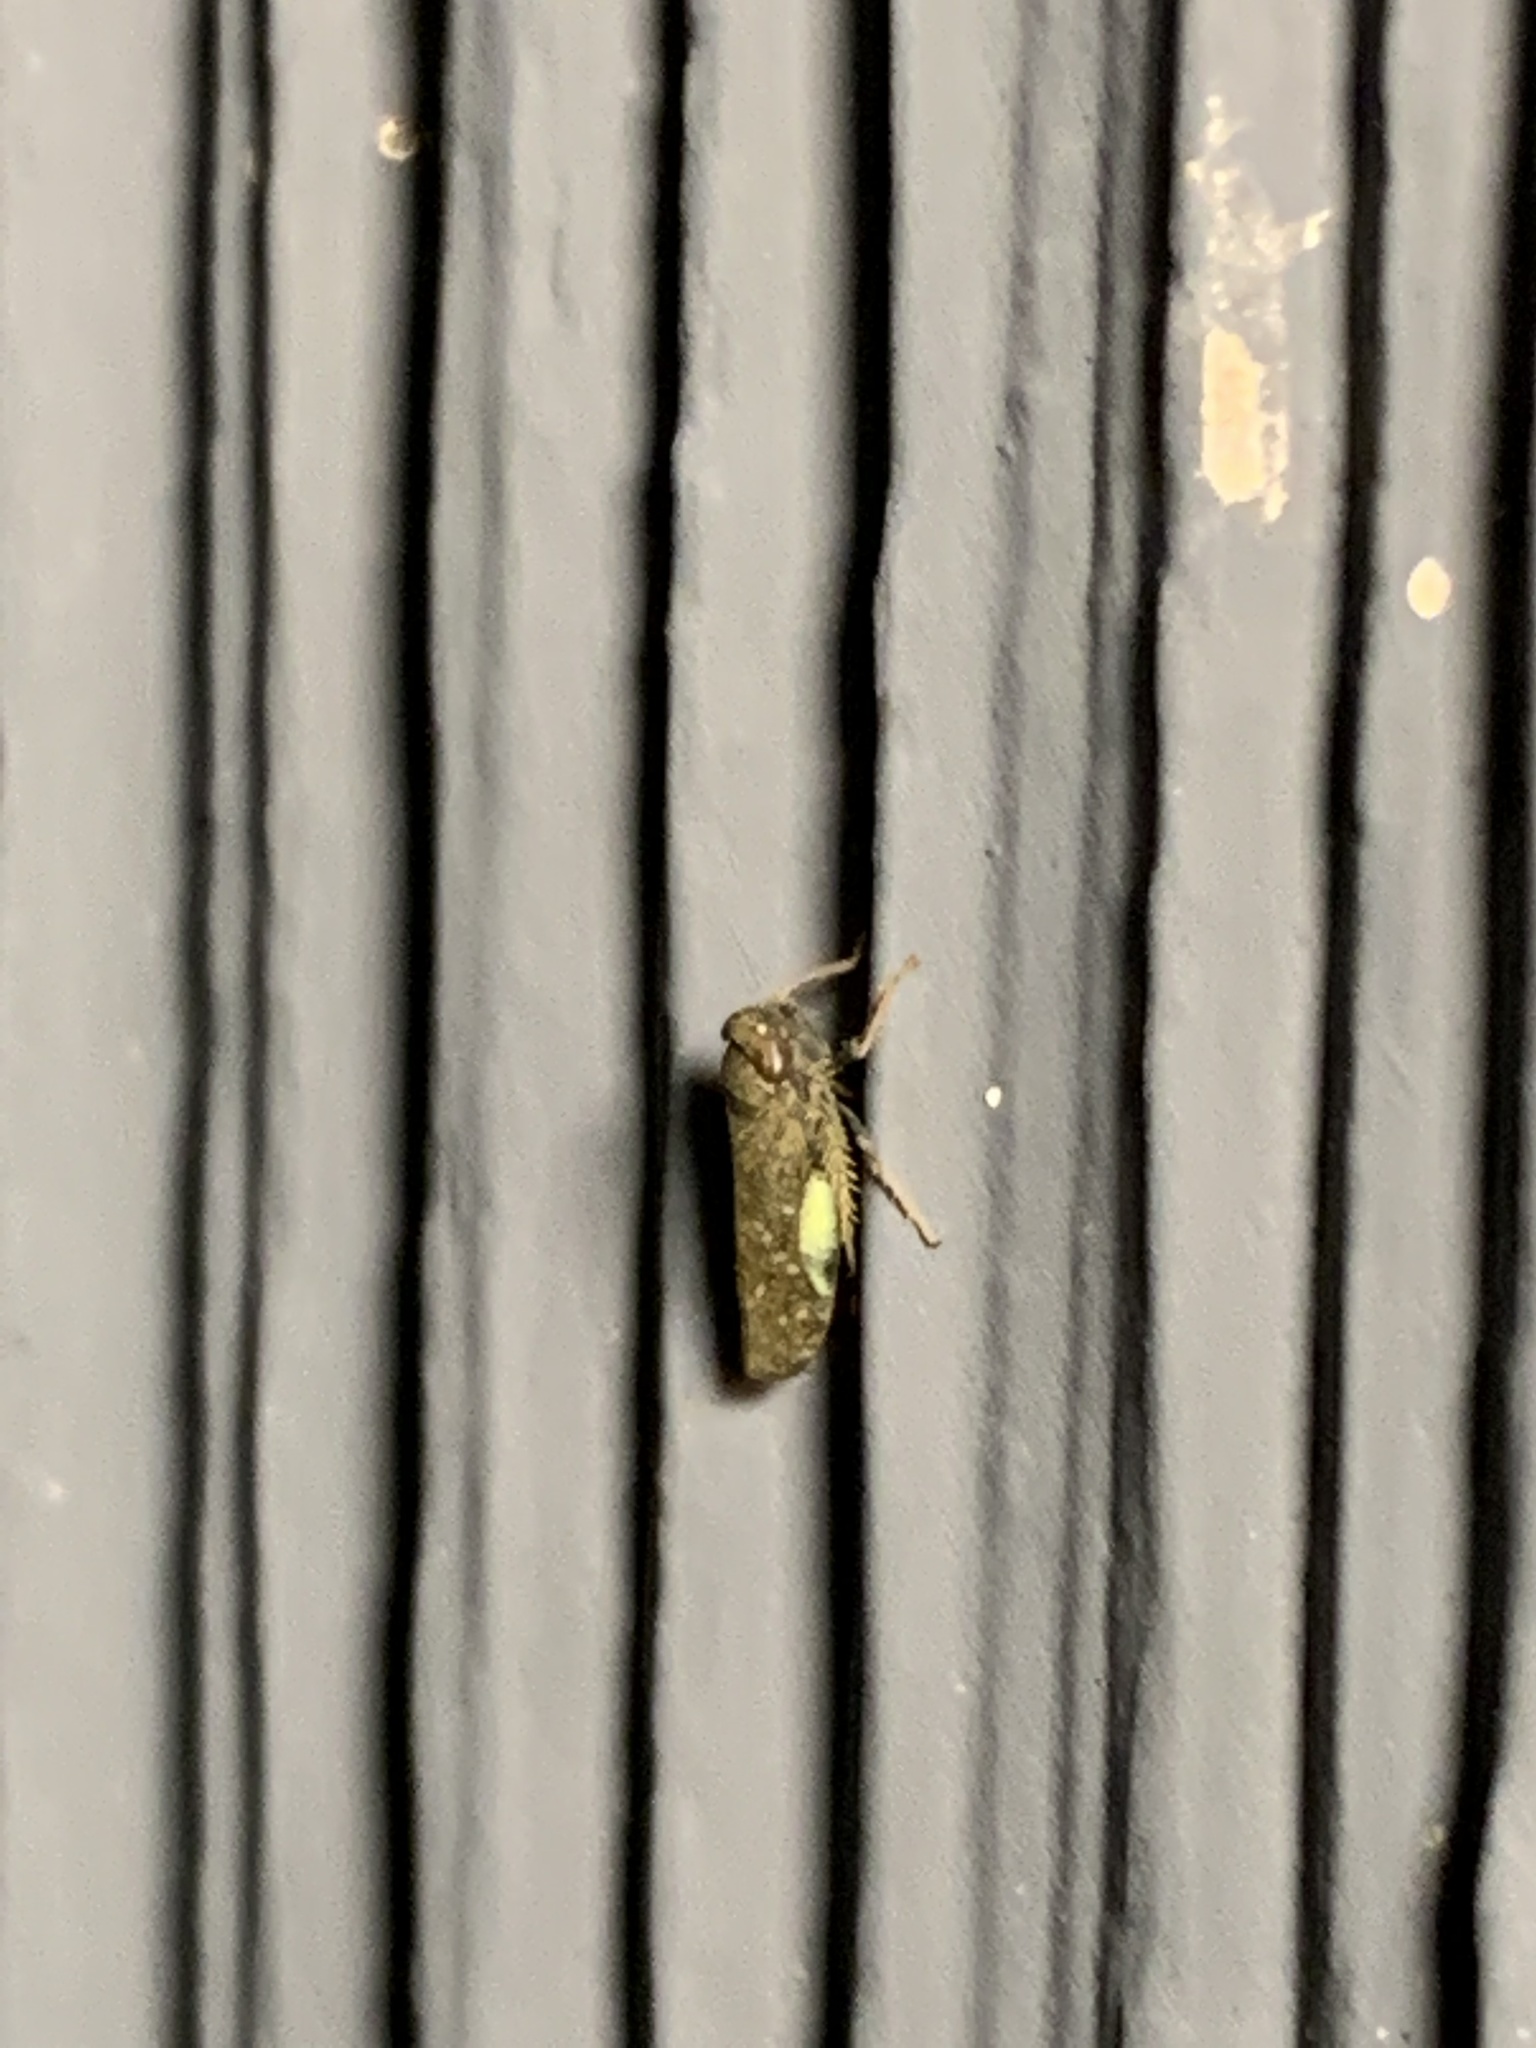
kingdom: Animalia
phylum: Arthropoda
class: Insecta
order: Hemiptera
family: Cicadellidae
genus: Orientus
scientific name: Orientus ishidae
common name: Japanese leafhopper
